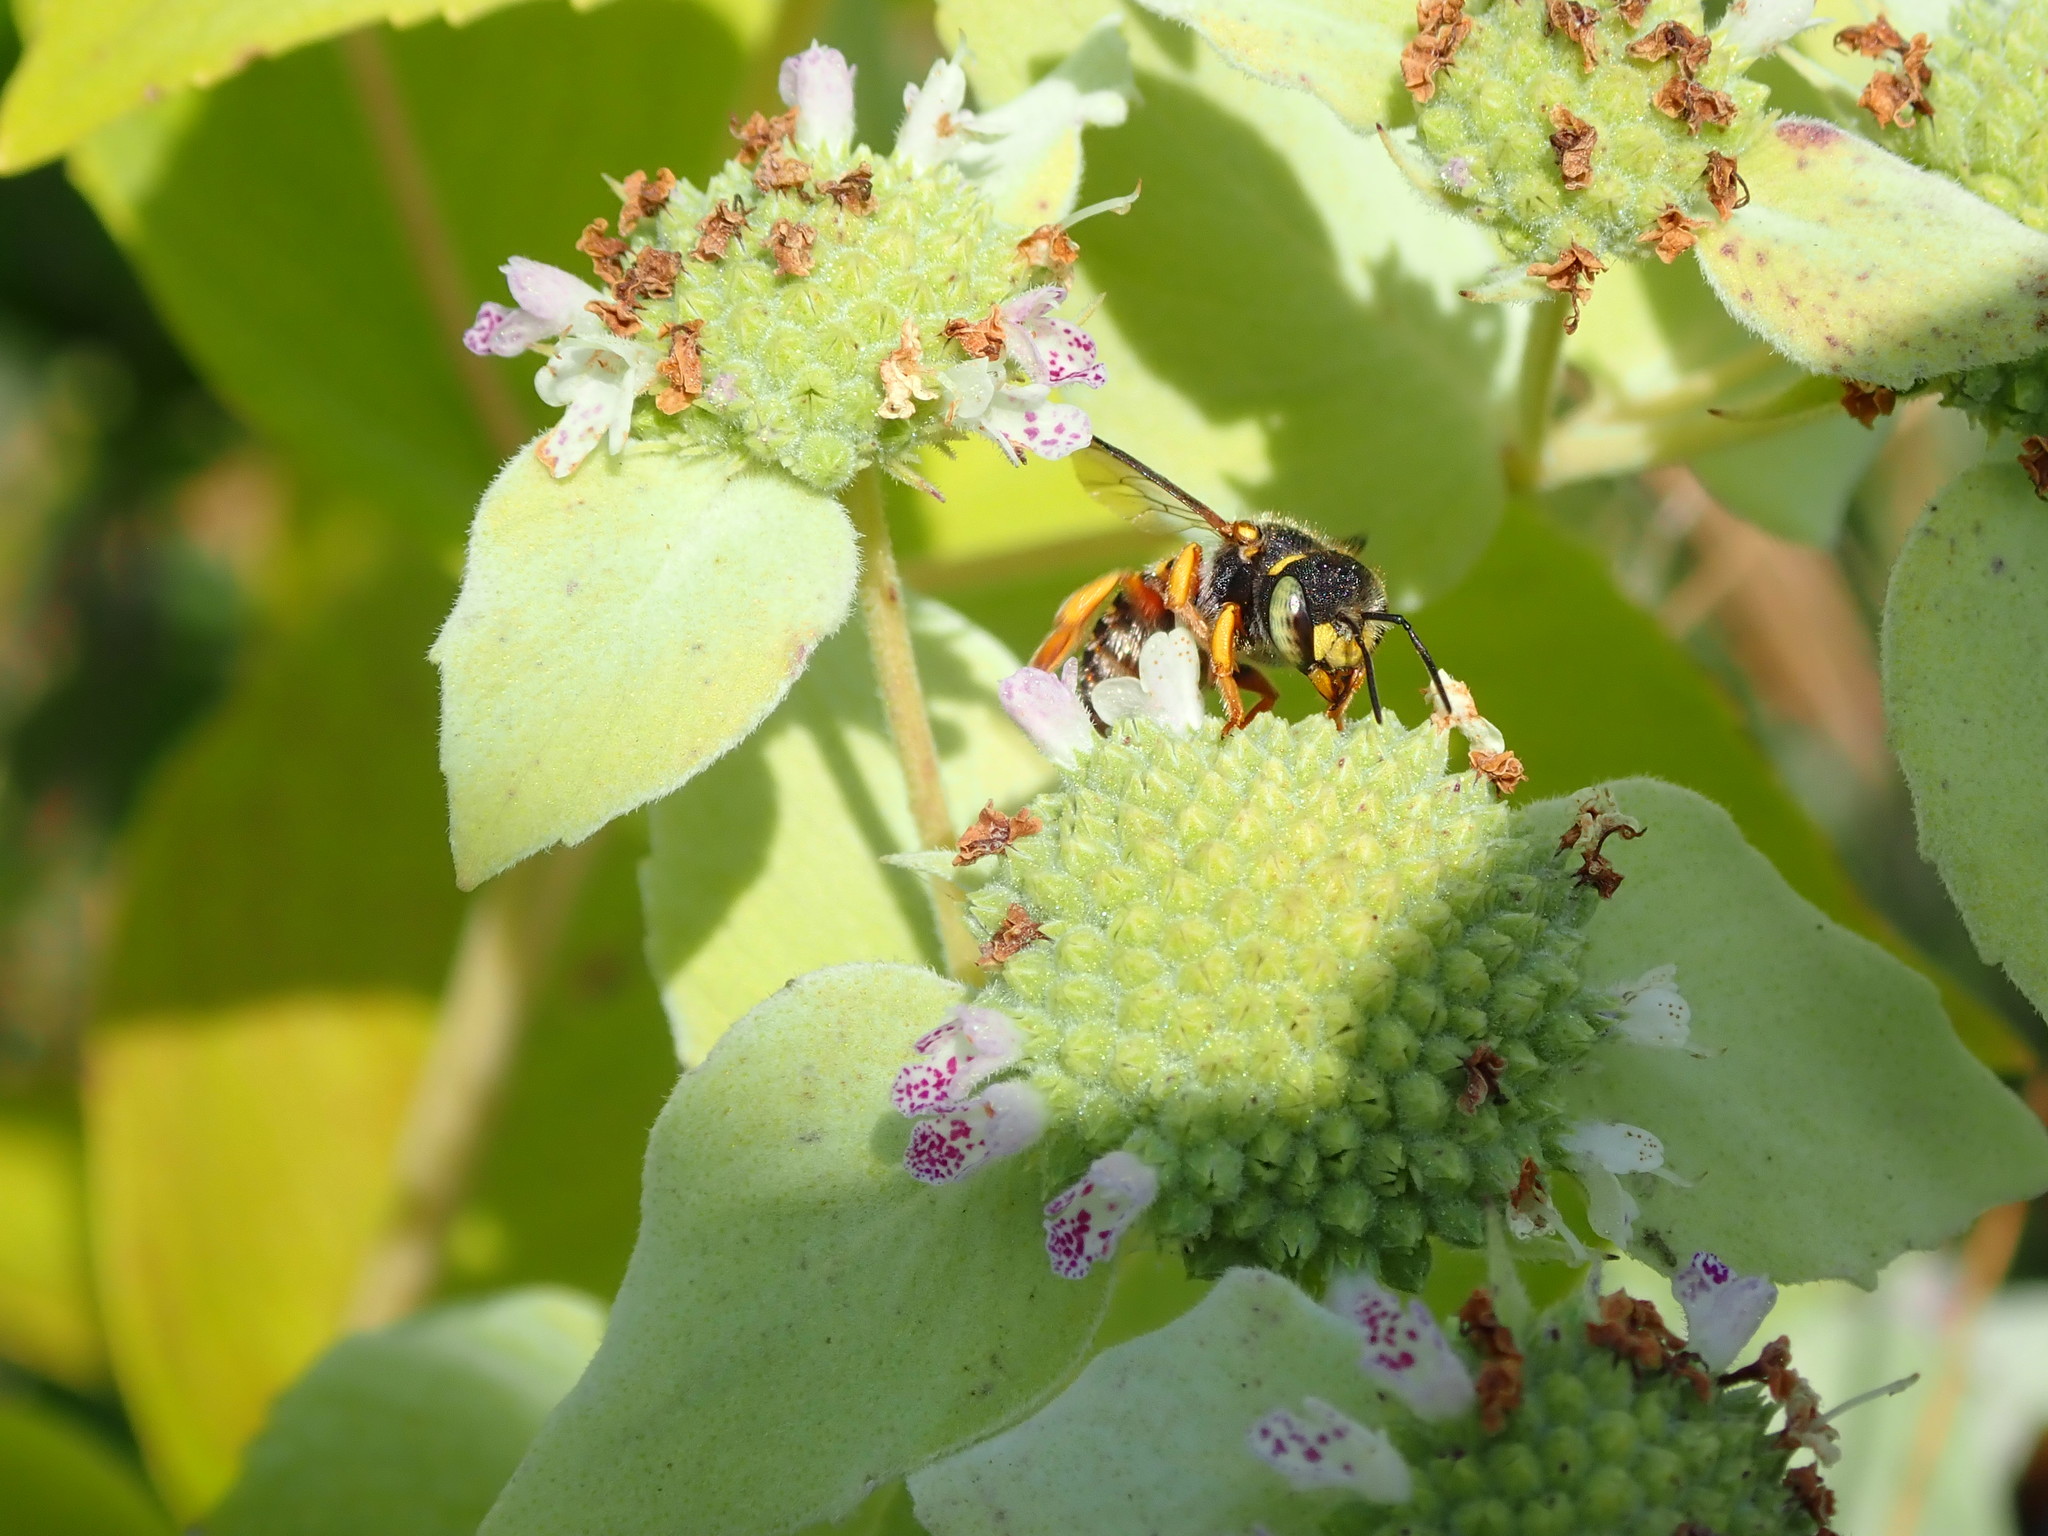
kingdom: Animalia
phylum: Arthropoda
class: Insecta
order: Hymenoptera
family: Megachilidae
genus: Anthidium
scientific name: Anthidium oblongatum
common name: Oblong wool carder bee
